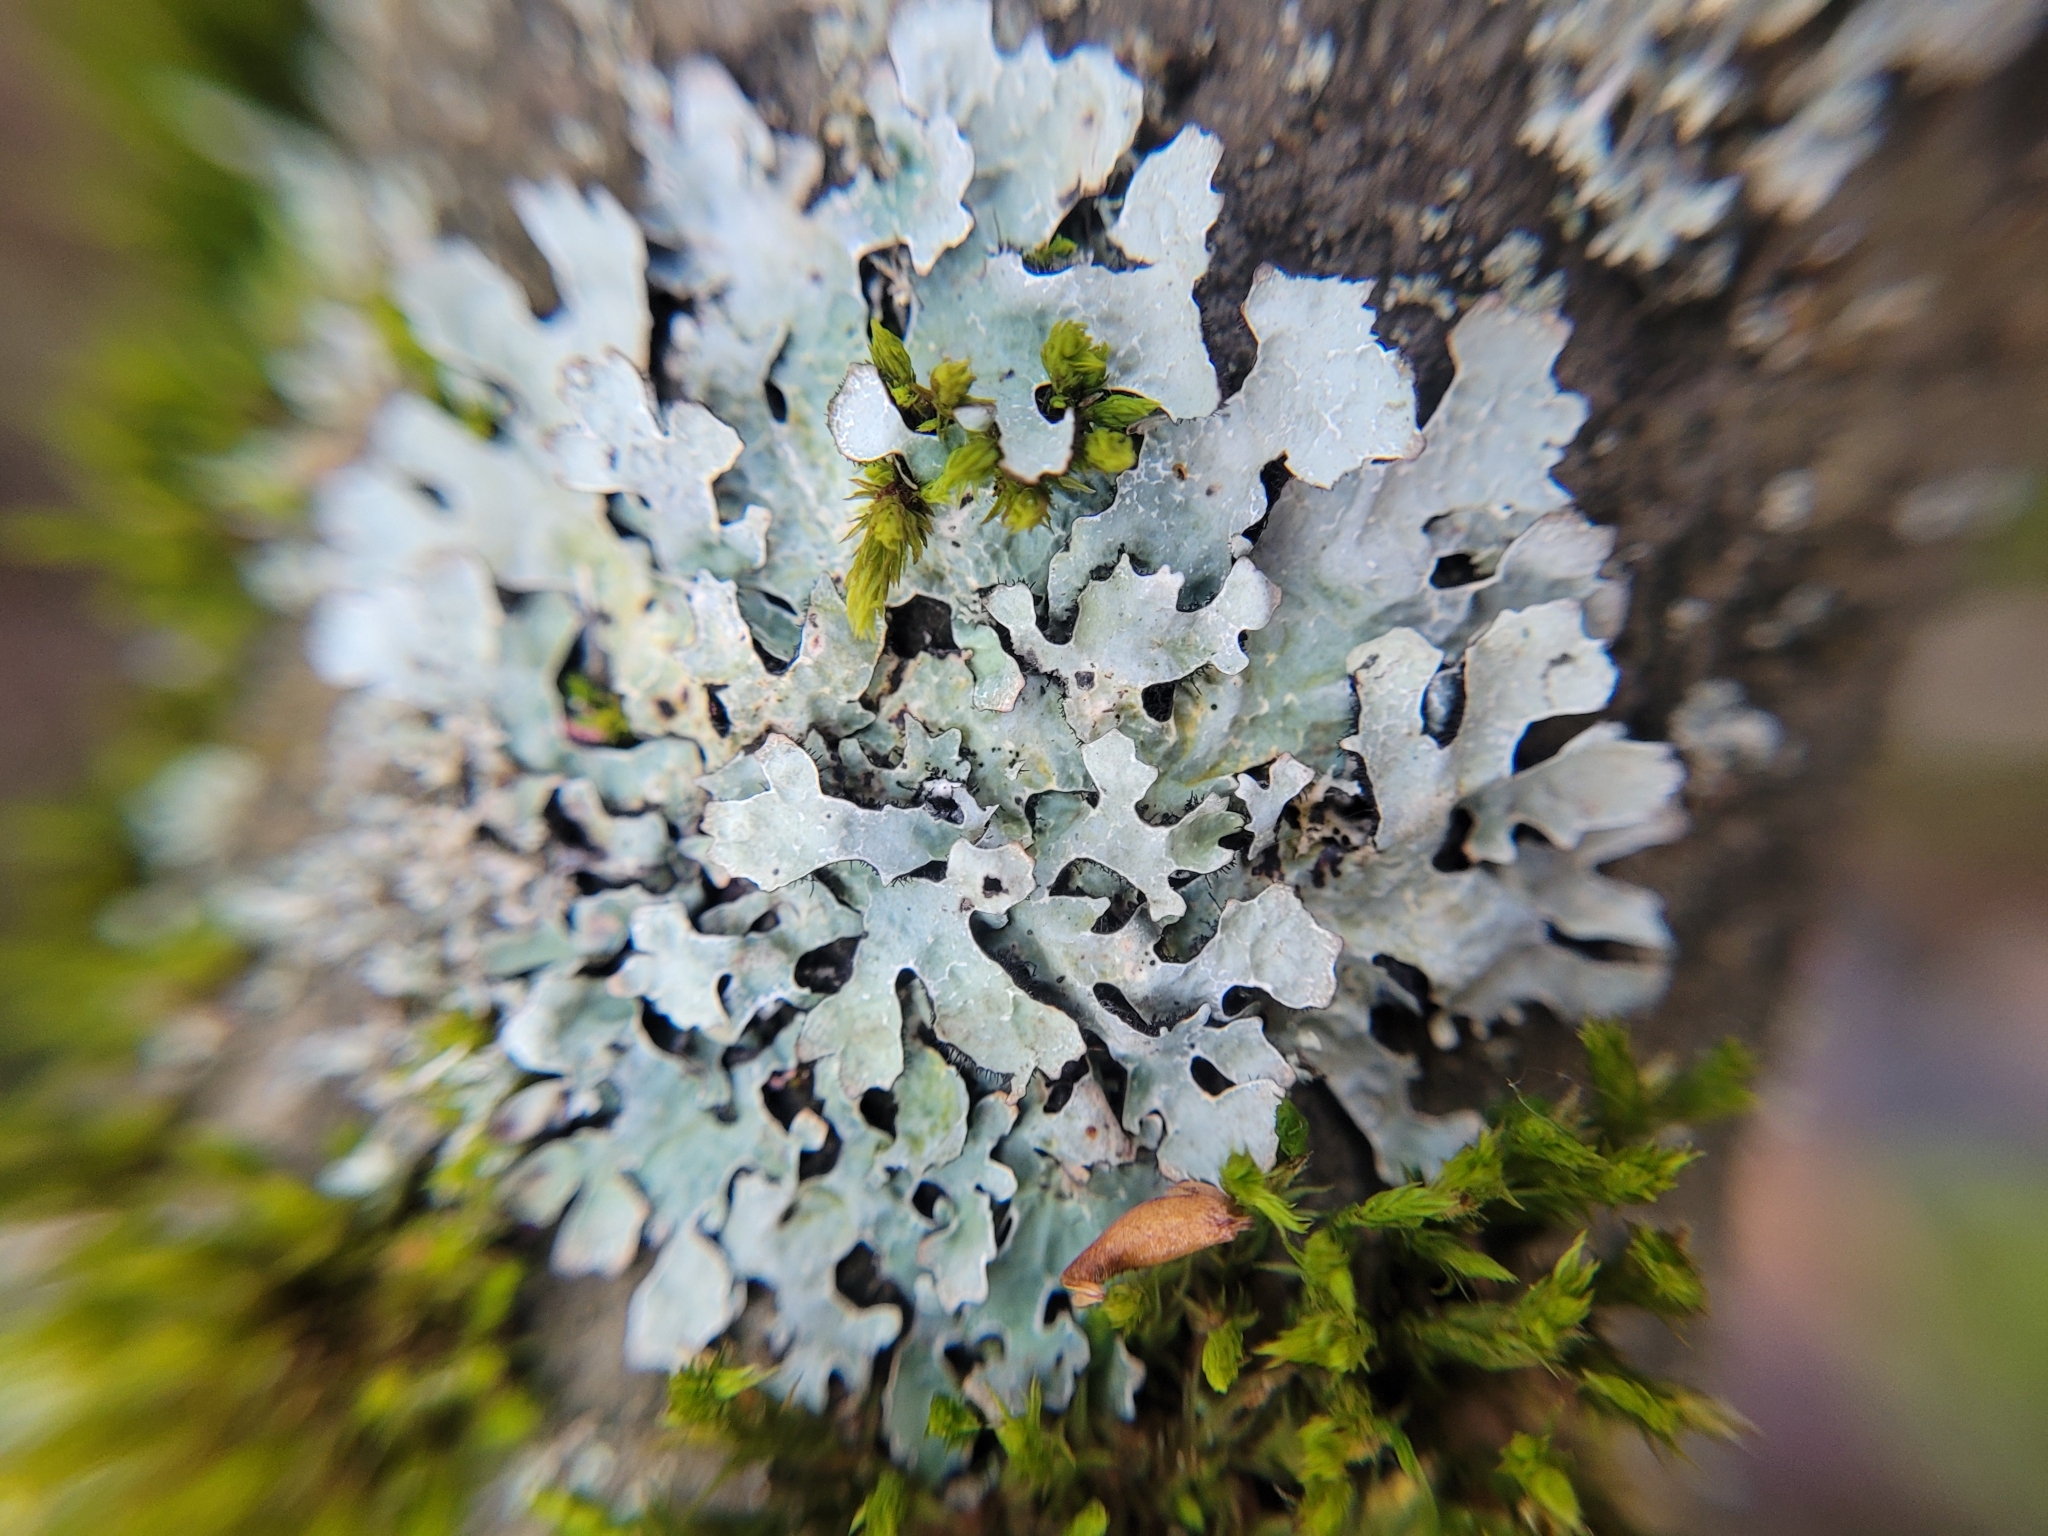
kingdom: Fungi
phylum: Ascomycota
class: Lecanoromycetes
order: Lecanorales
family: Parmeliaceae
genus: Parmelia
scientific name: Parmelia sulcata
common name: Netted shield lichen
